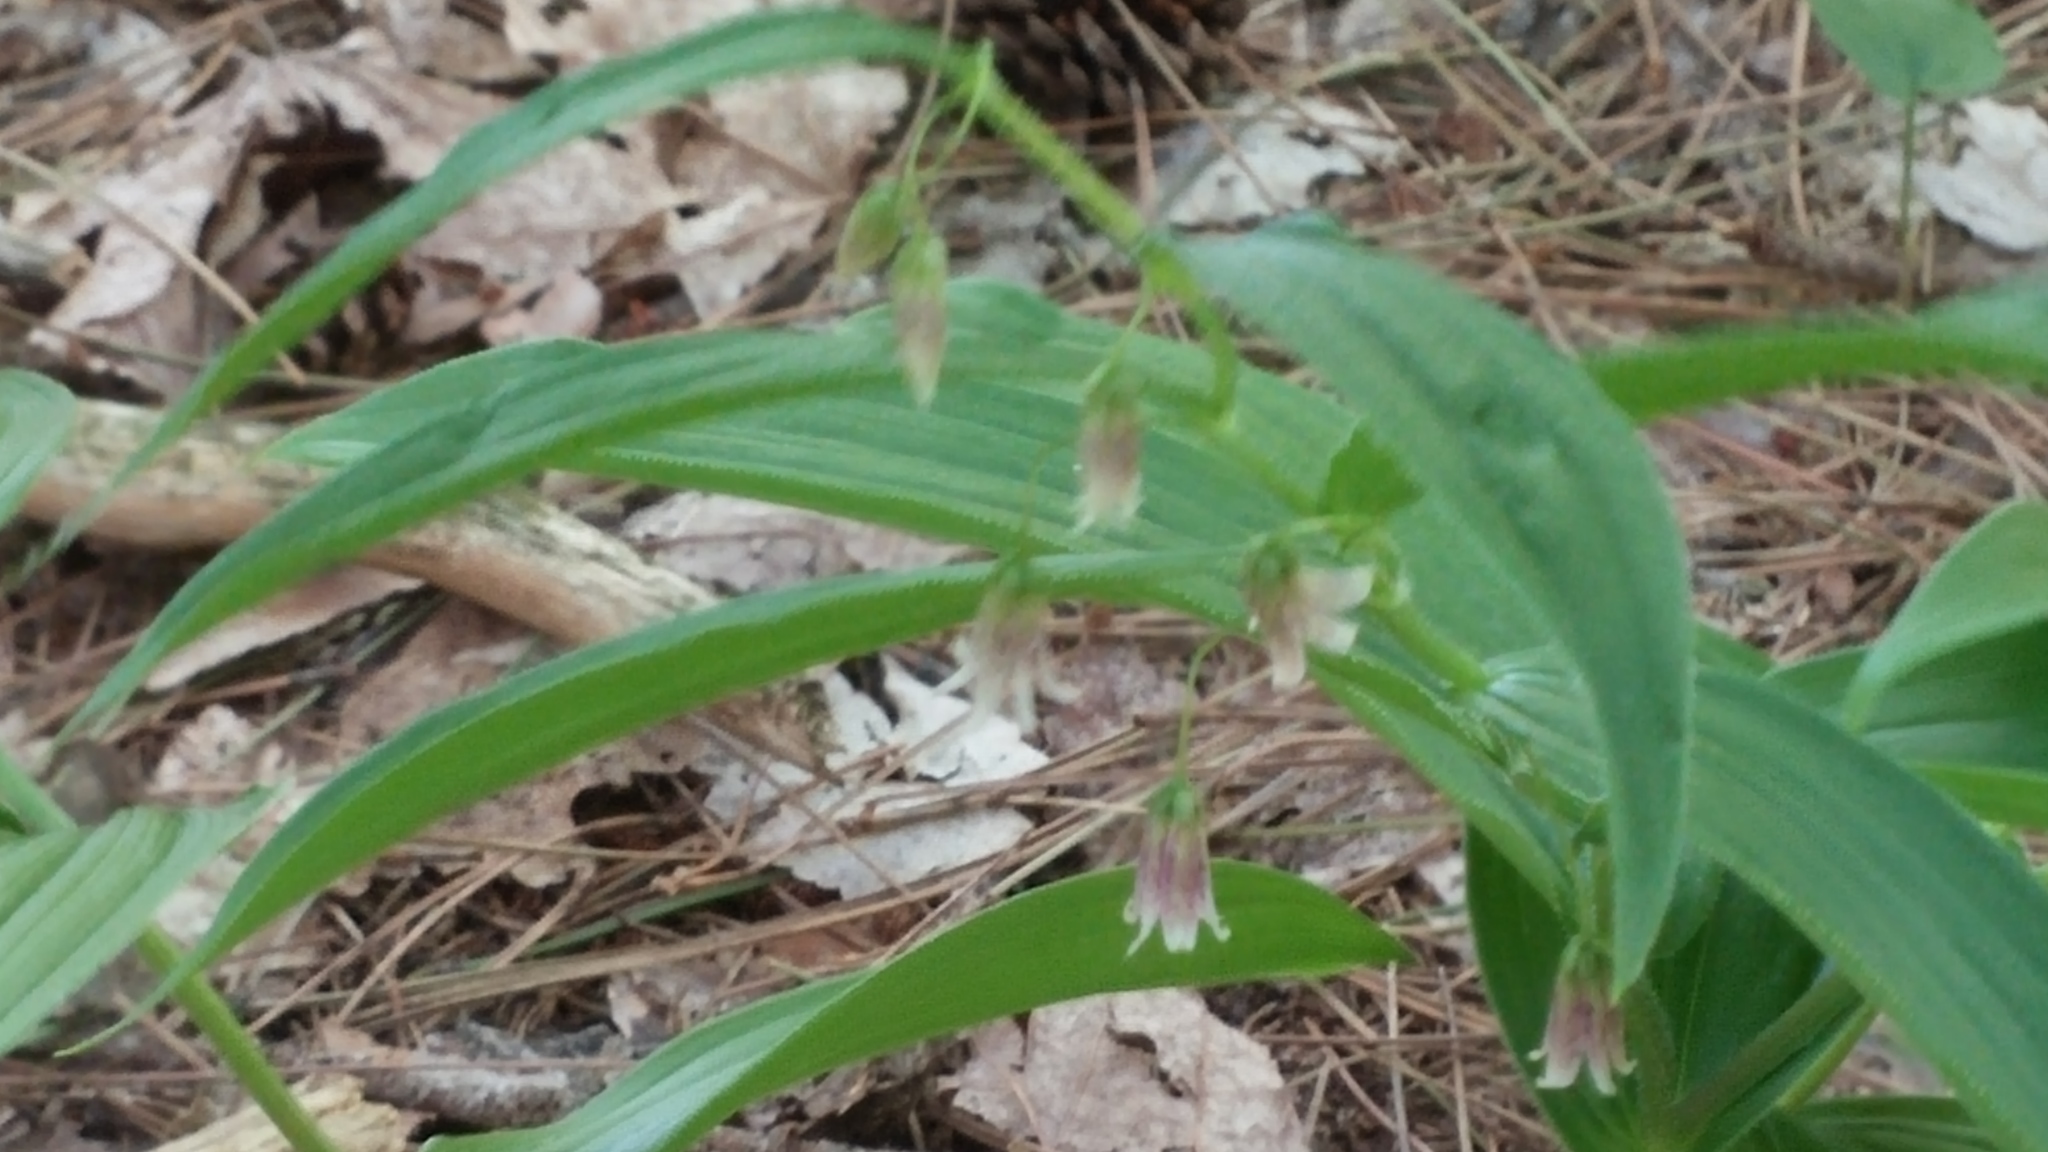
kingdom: Plantae
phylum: Tracheophyta
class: Liliopsida
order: Liliales
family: Liliaceae
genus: Streptopus
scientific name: Streptopus lanceolatus
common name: Rose mandarin
